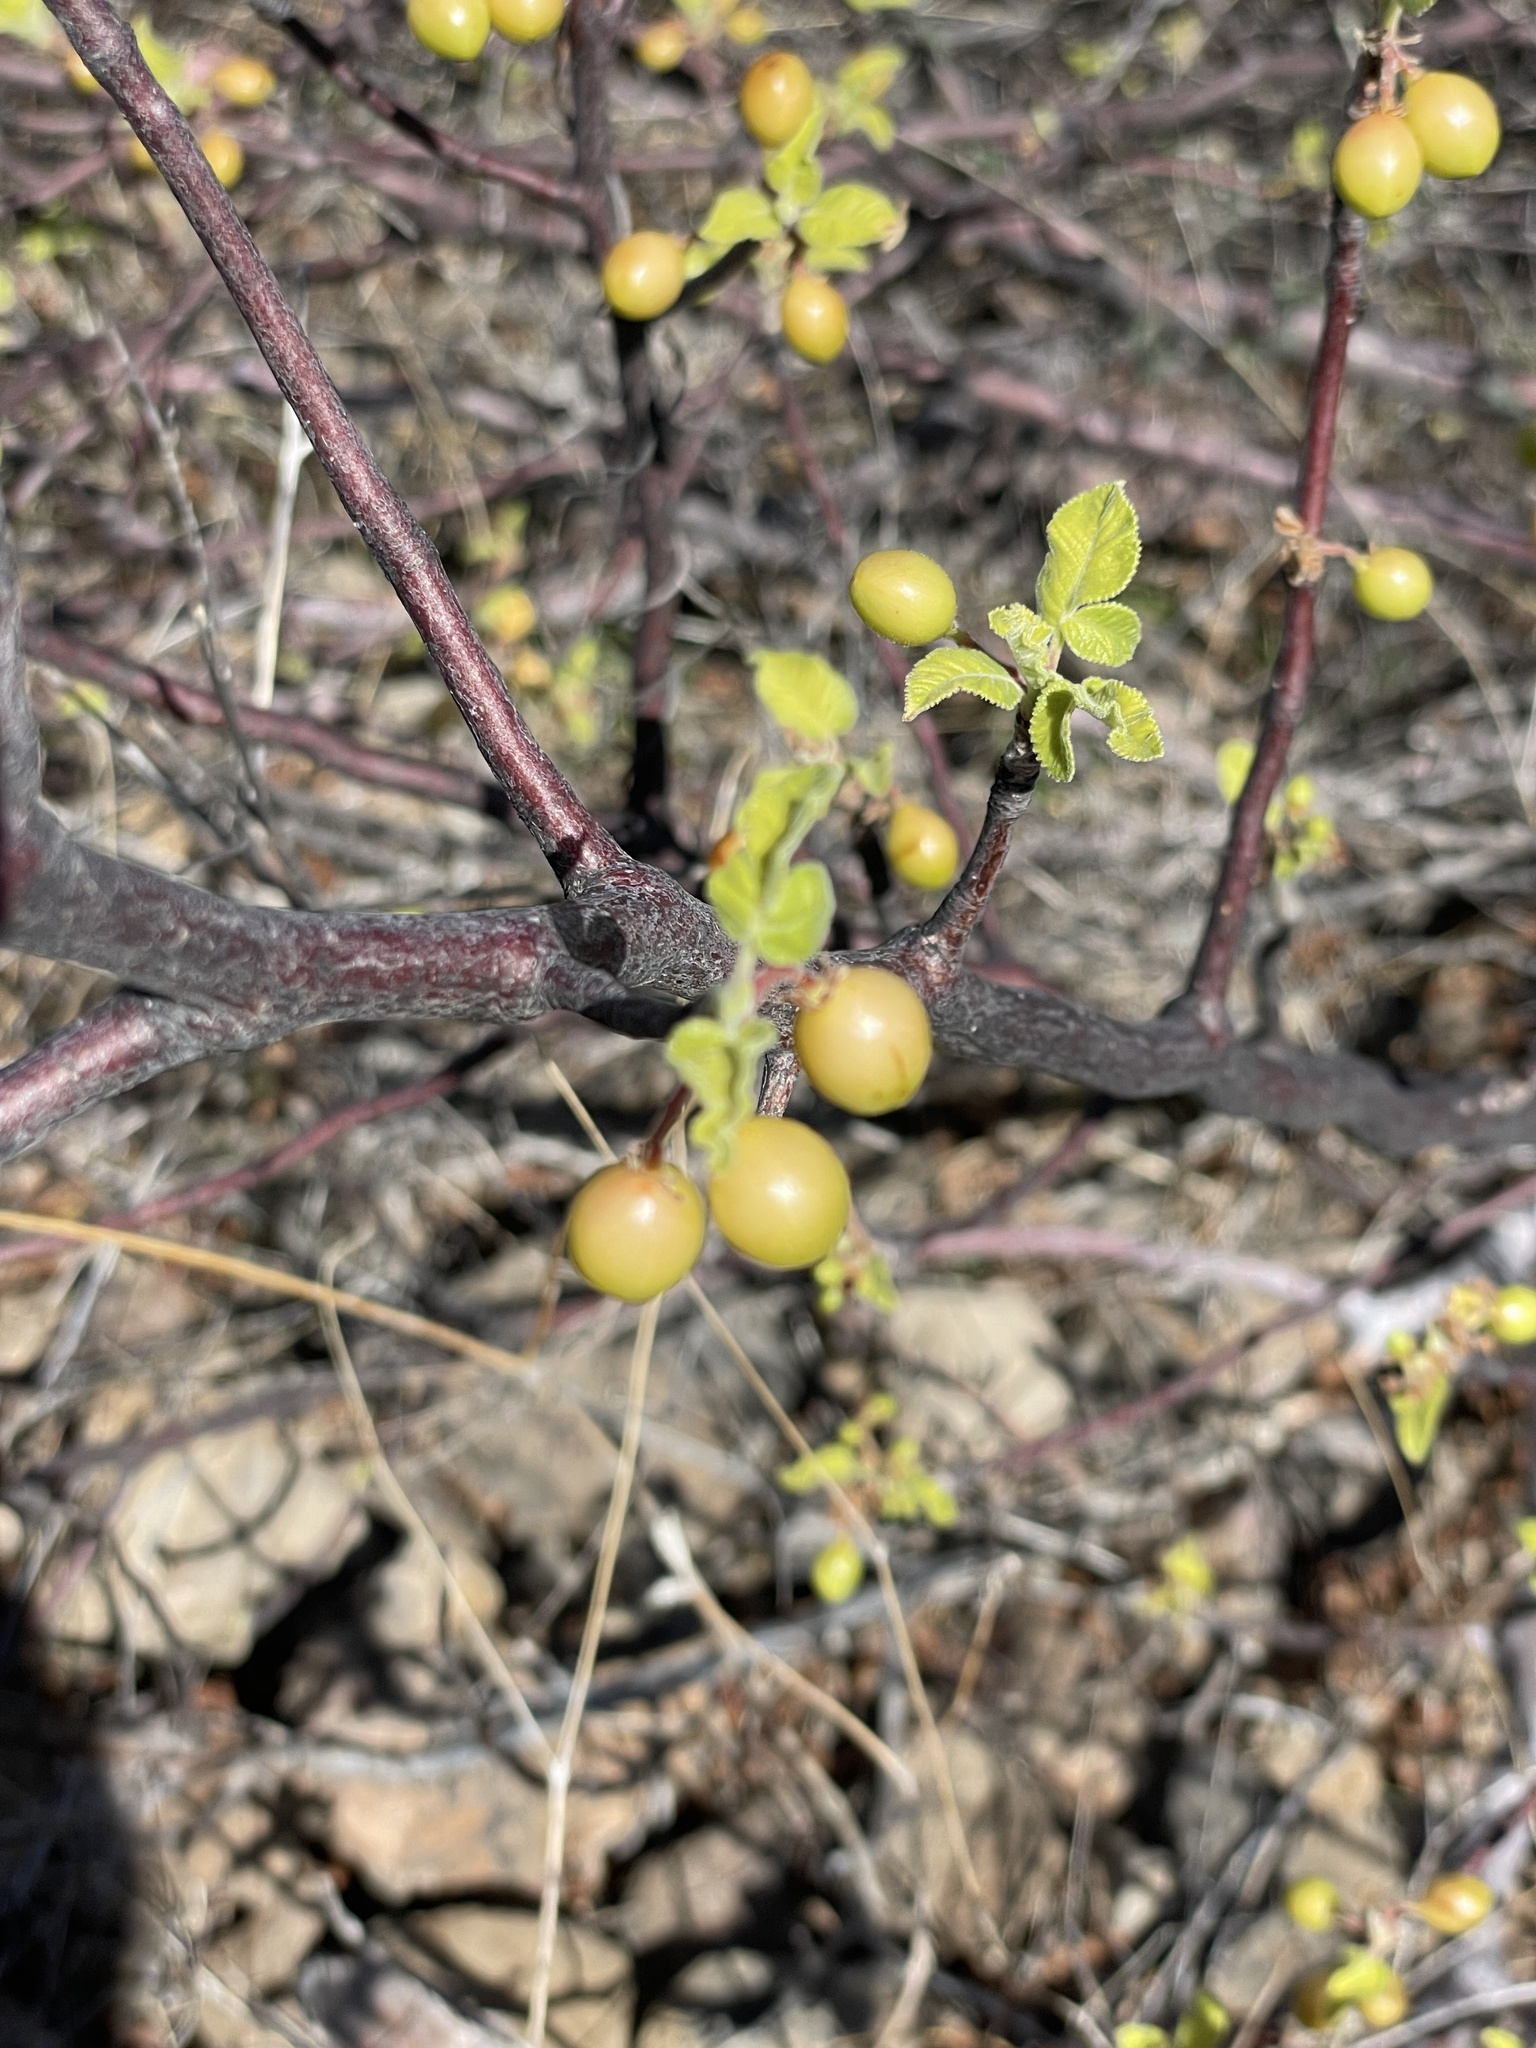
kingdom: Plantae
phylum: Tracheophyta
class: Magnoliopsida
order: Sapindales
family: Burseraceae
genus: Bursera
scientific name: Bursera hindsiana
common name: Red elephant tree
